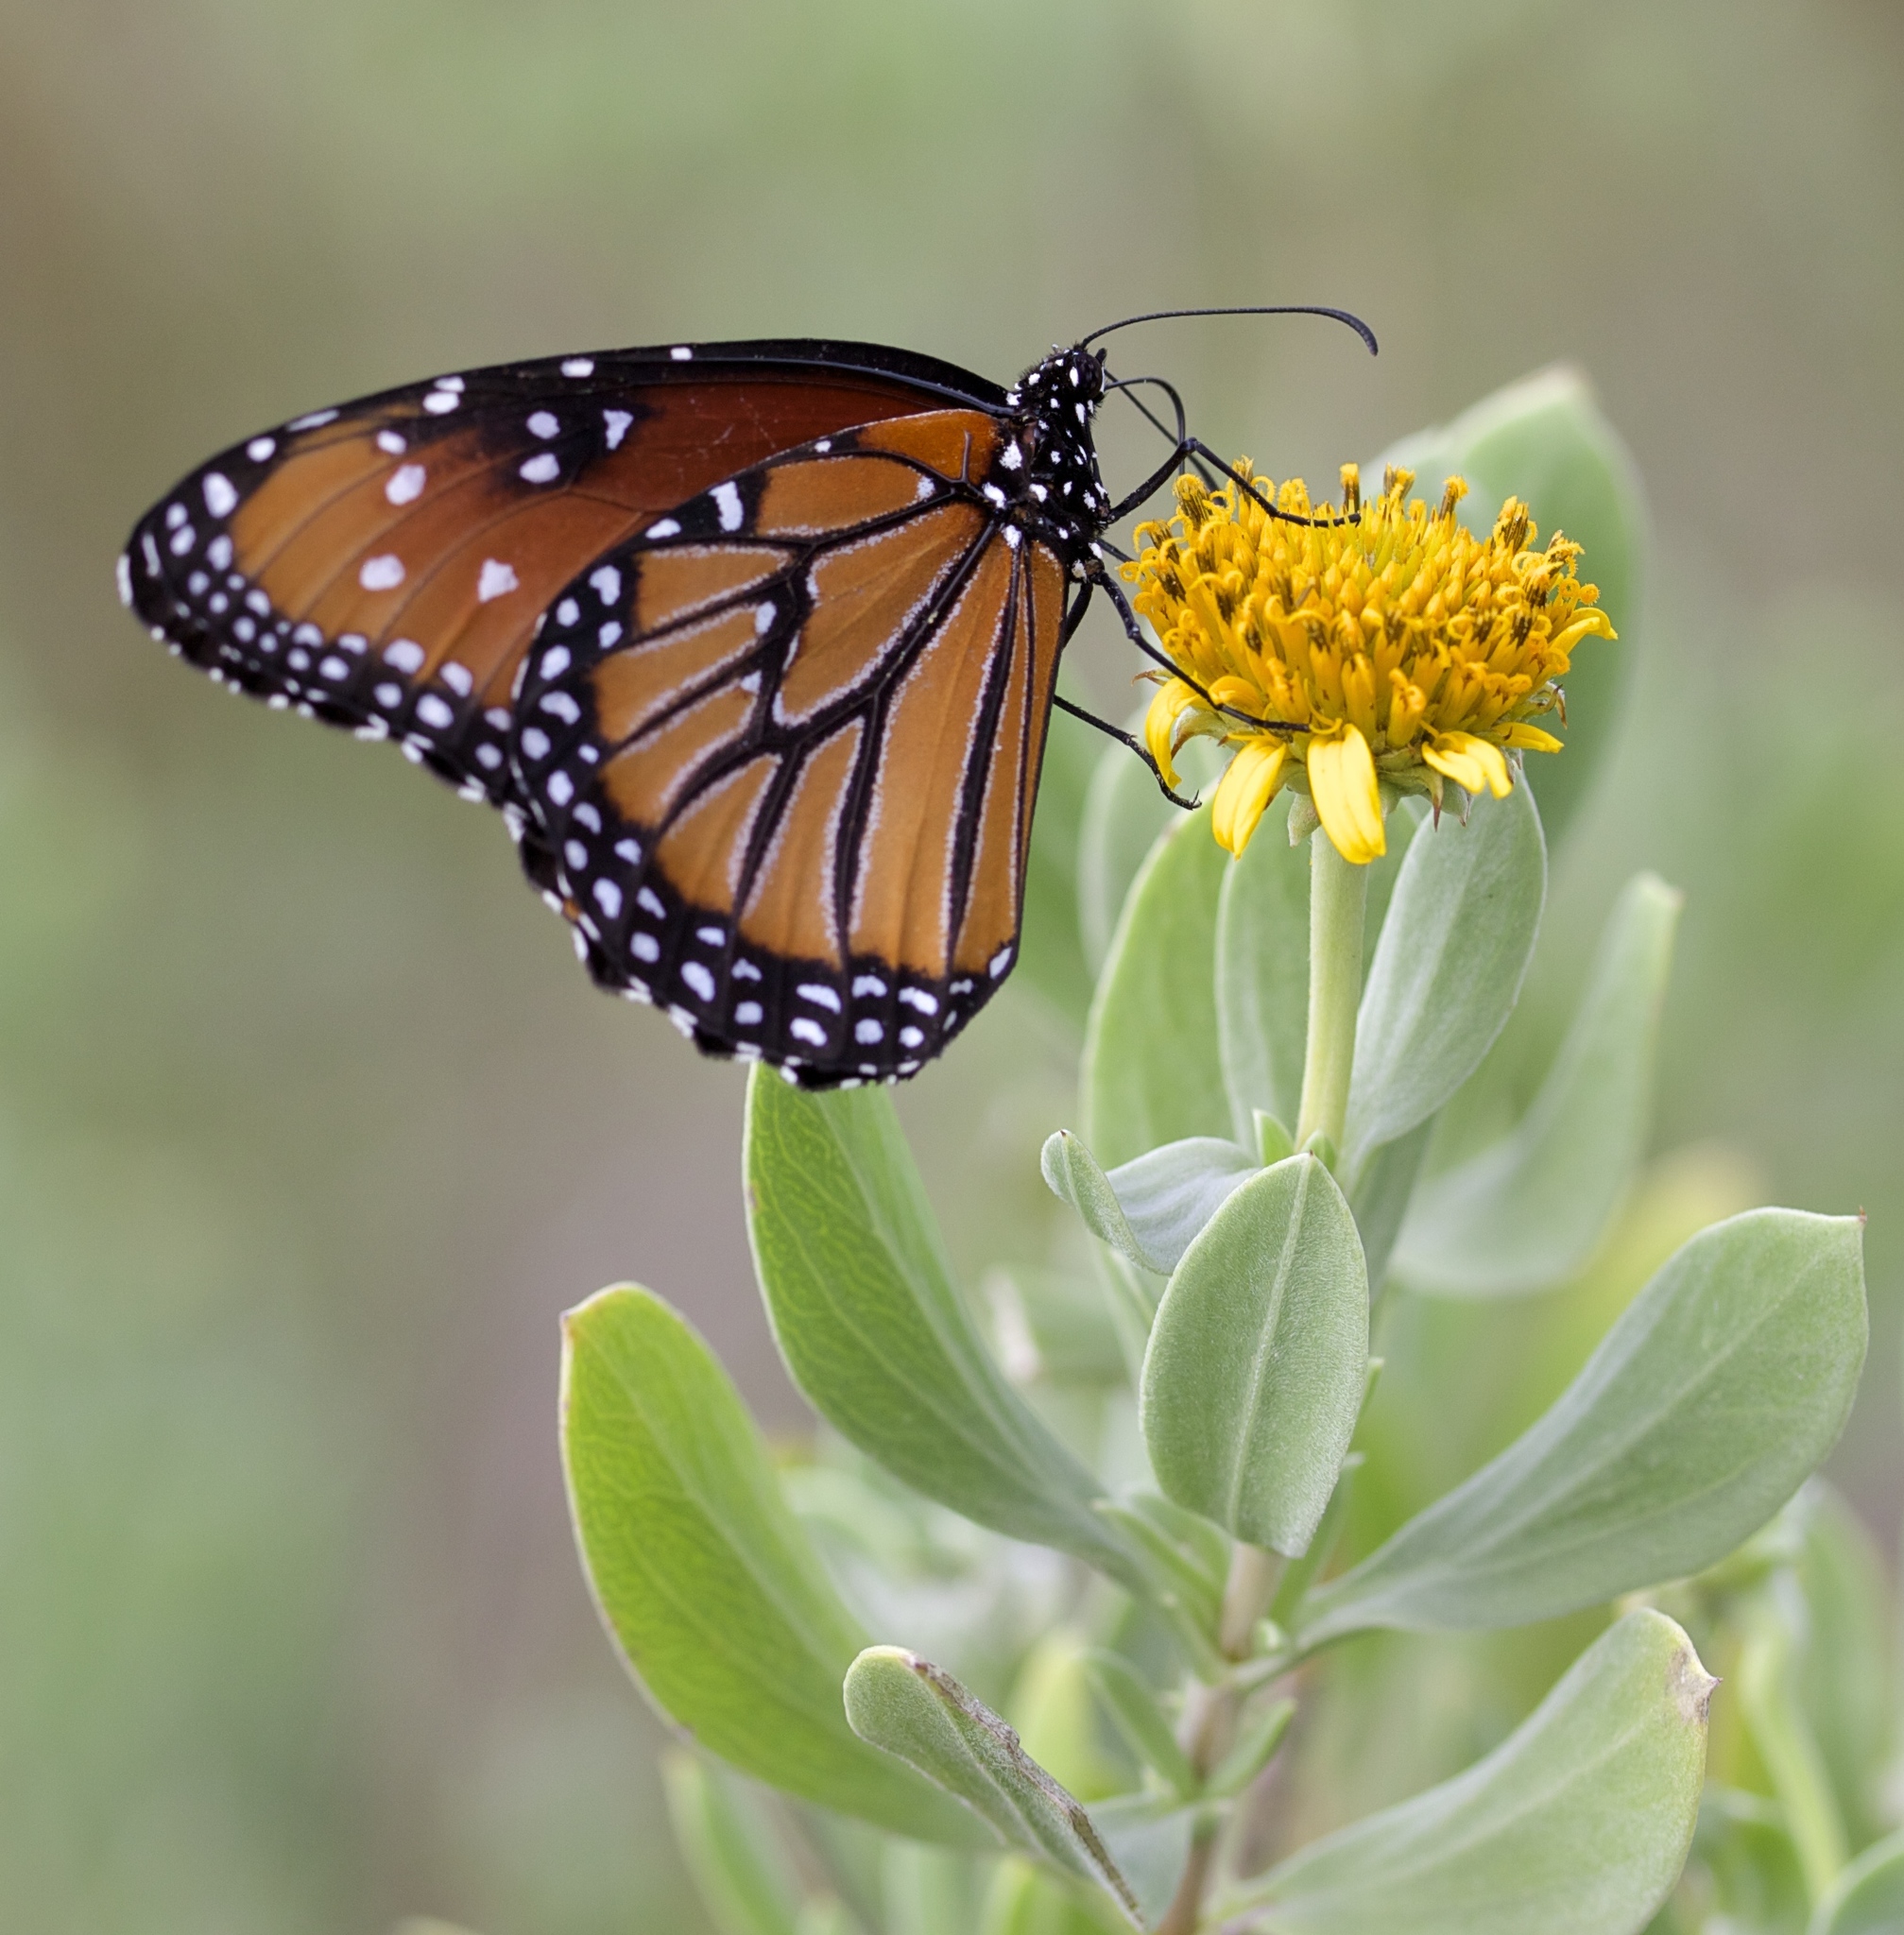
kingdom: Animalia
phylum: Arthropoda
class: Insecta
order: Lepidoptera
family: Nymphalidae
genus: Danaus
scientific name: Danaus gilippus
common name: Queen
